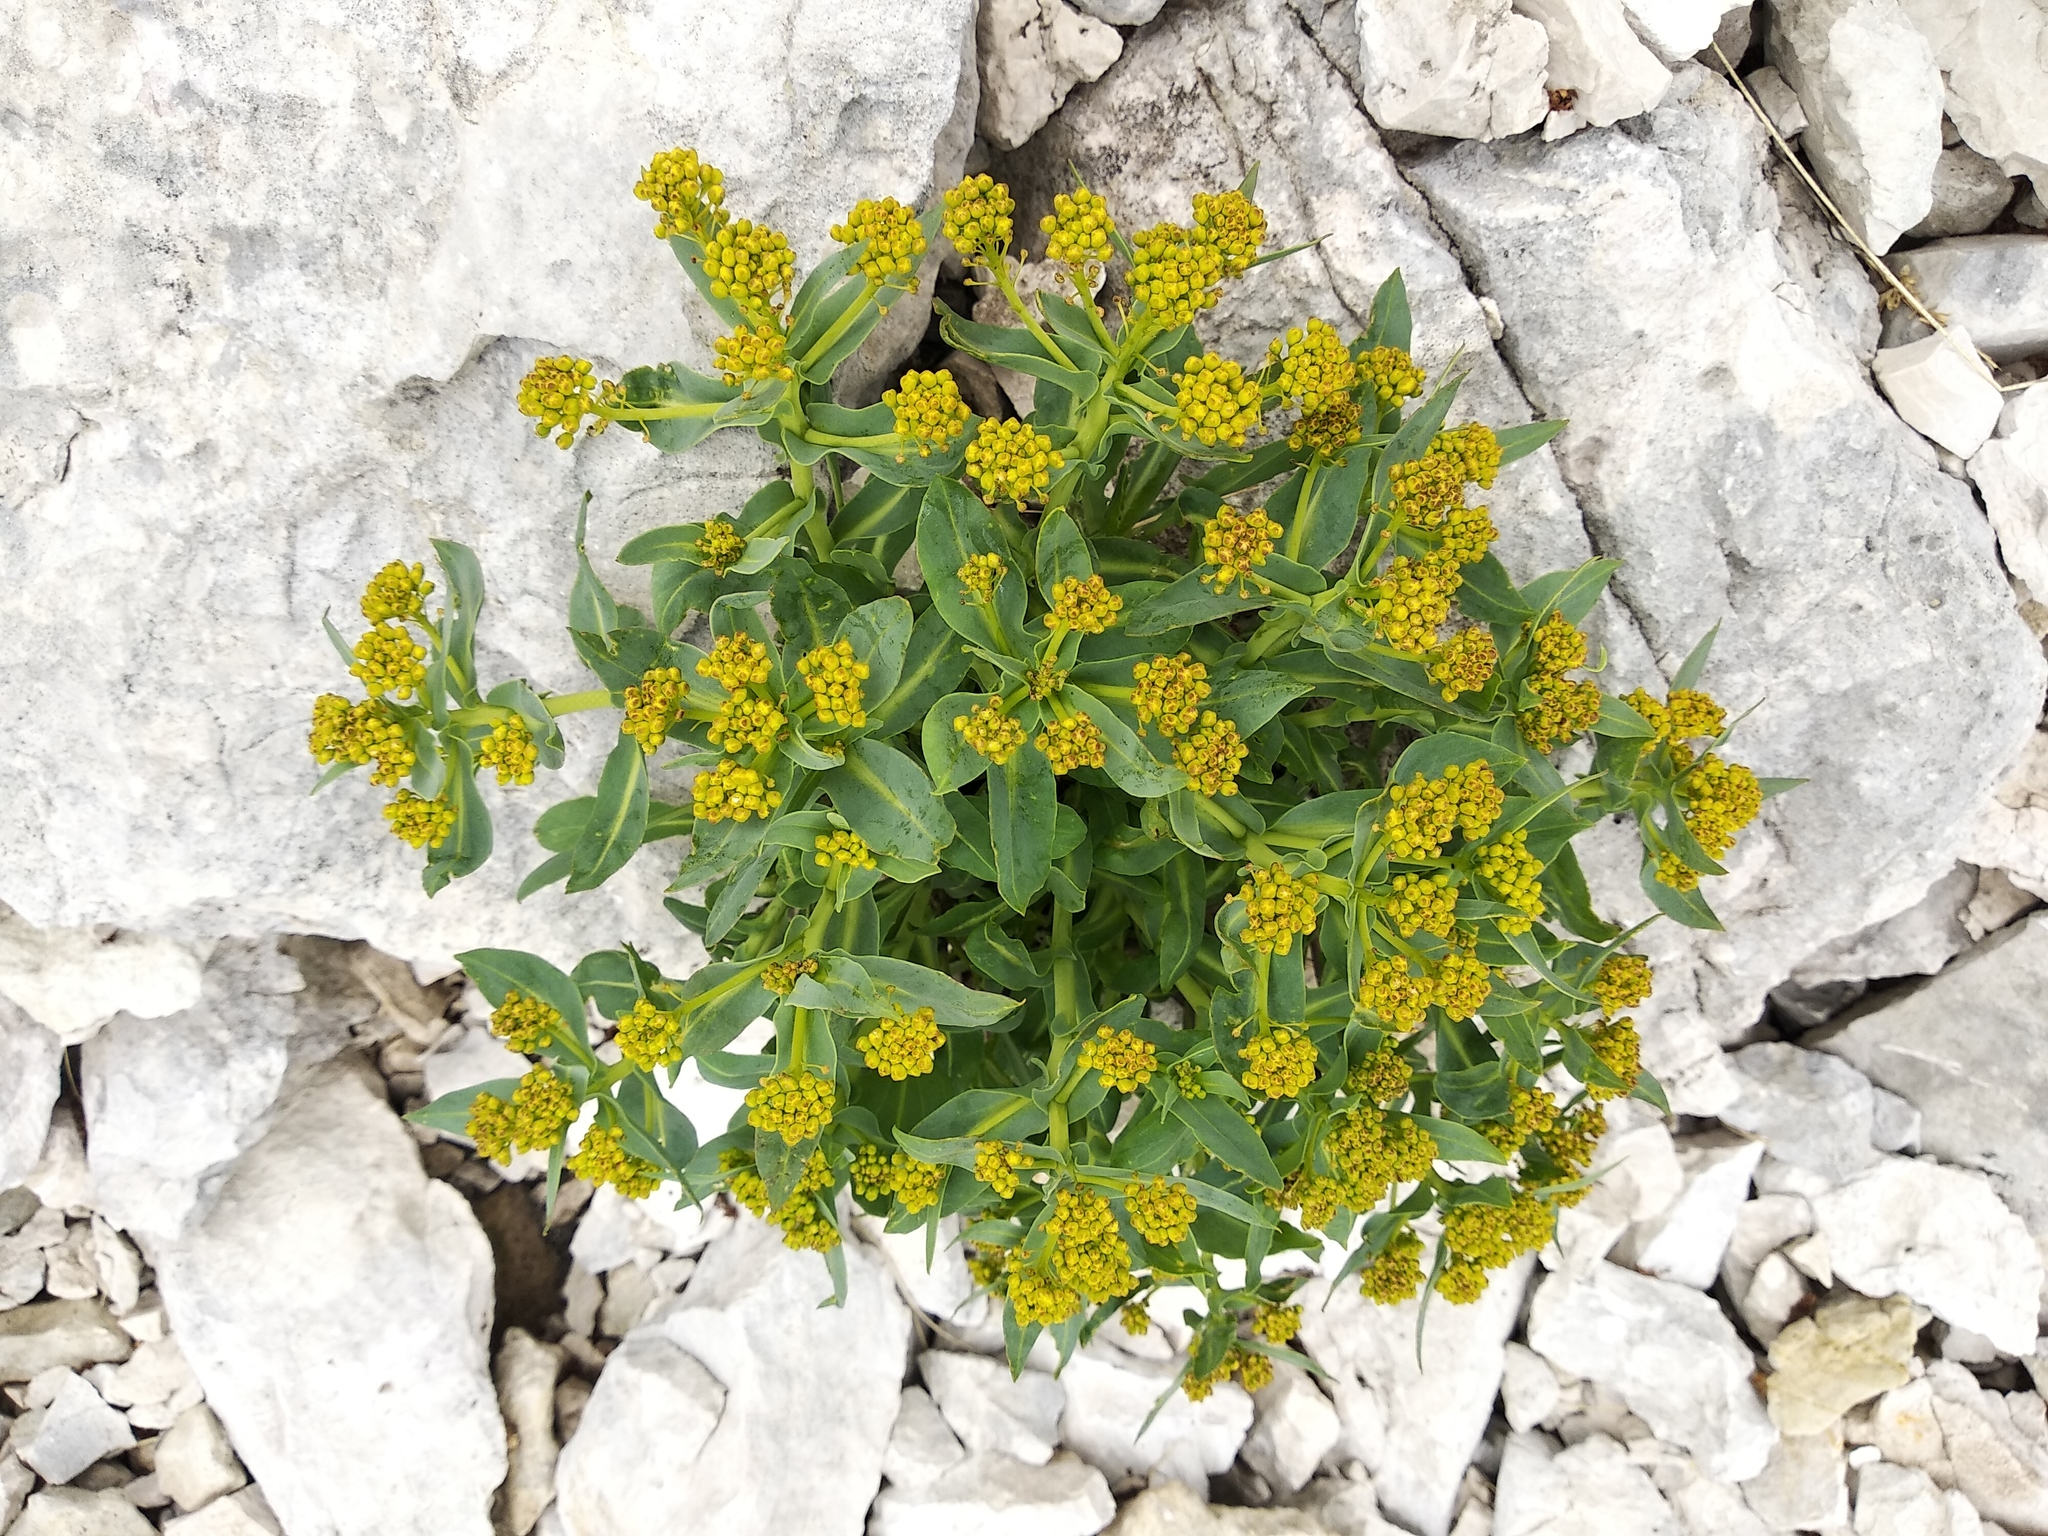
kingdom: Plantae
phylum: Tracheophyta
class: Magnoliopsida
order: Brassicales
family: Brassicaceae
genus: Isatis
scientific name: Isatis apennina
